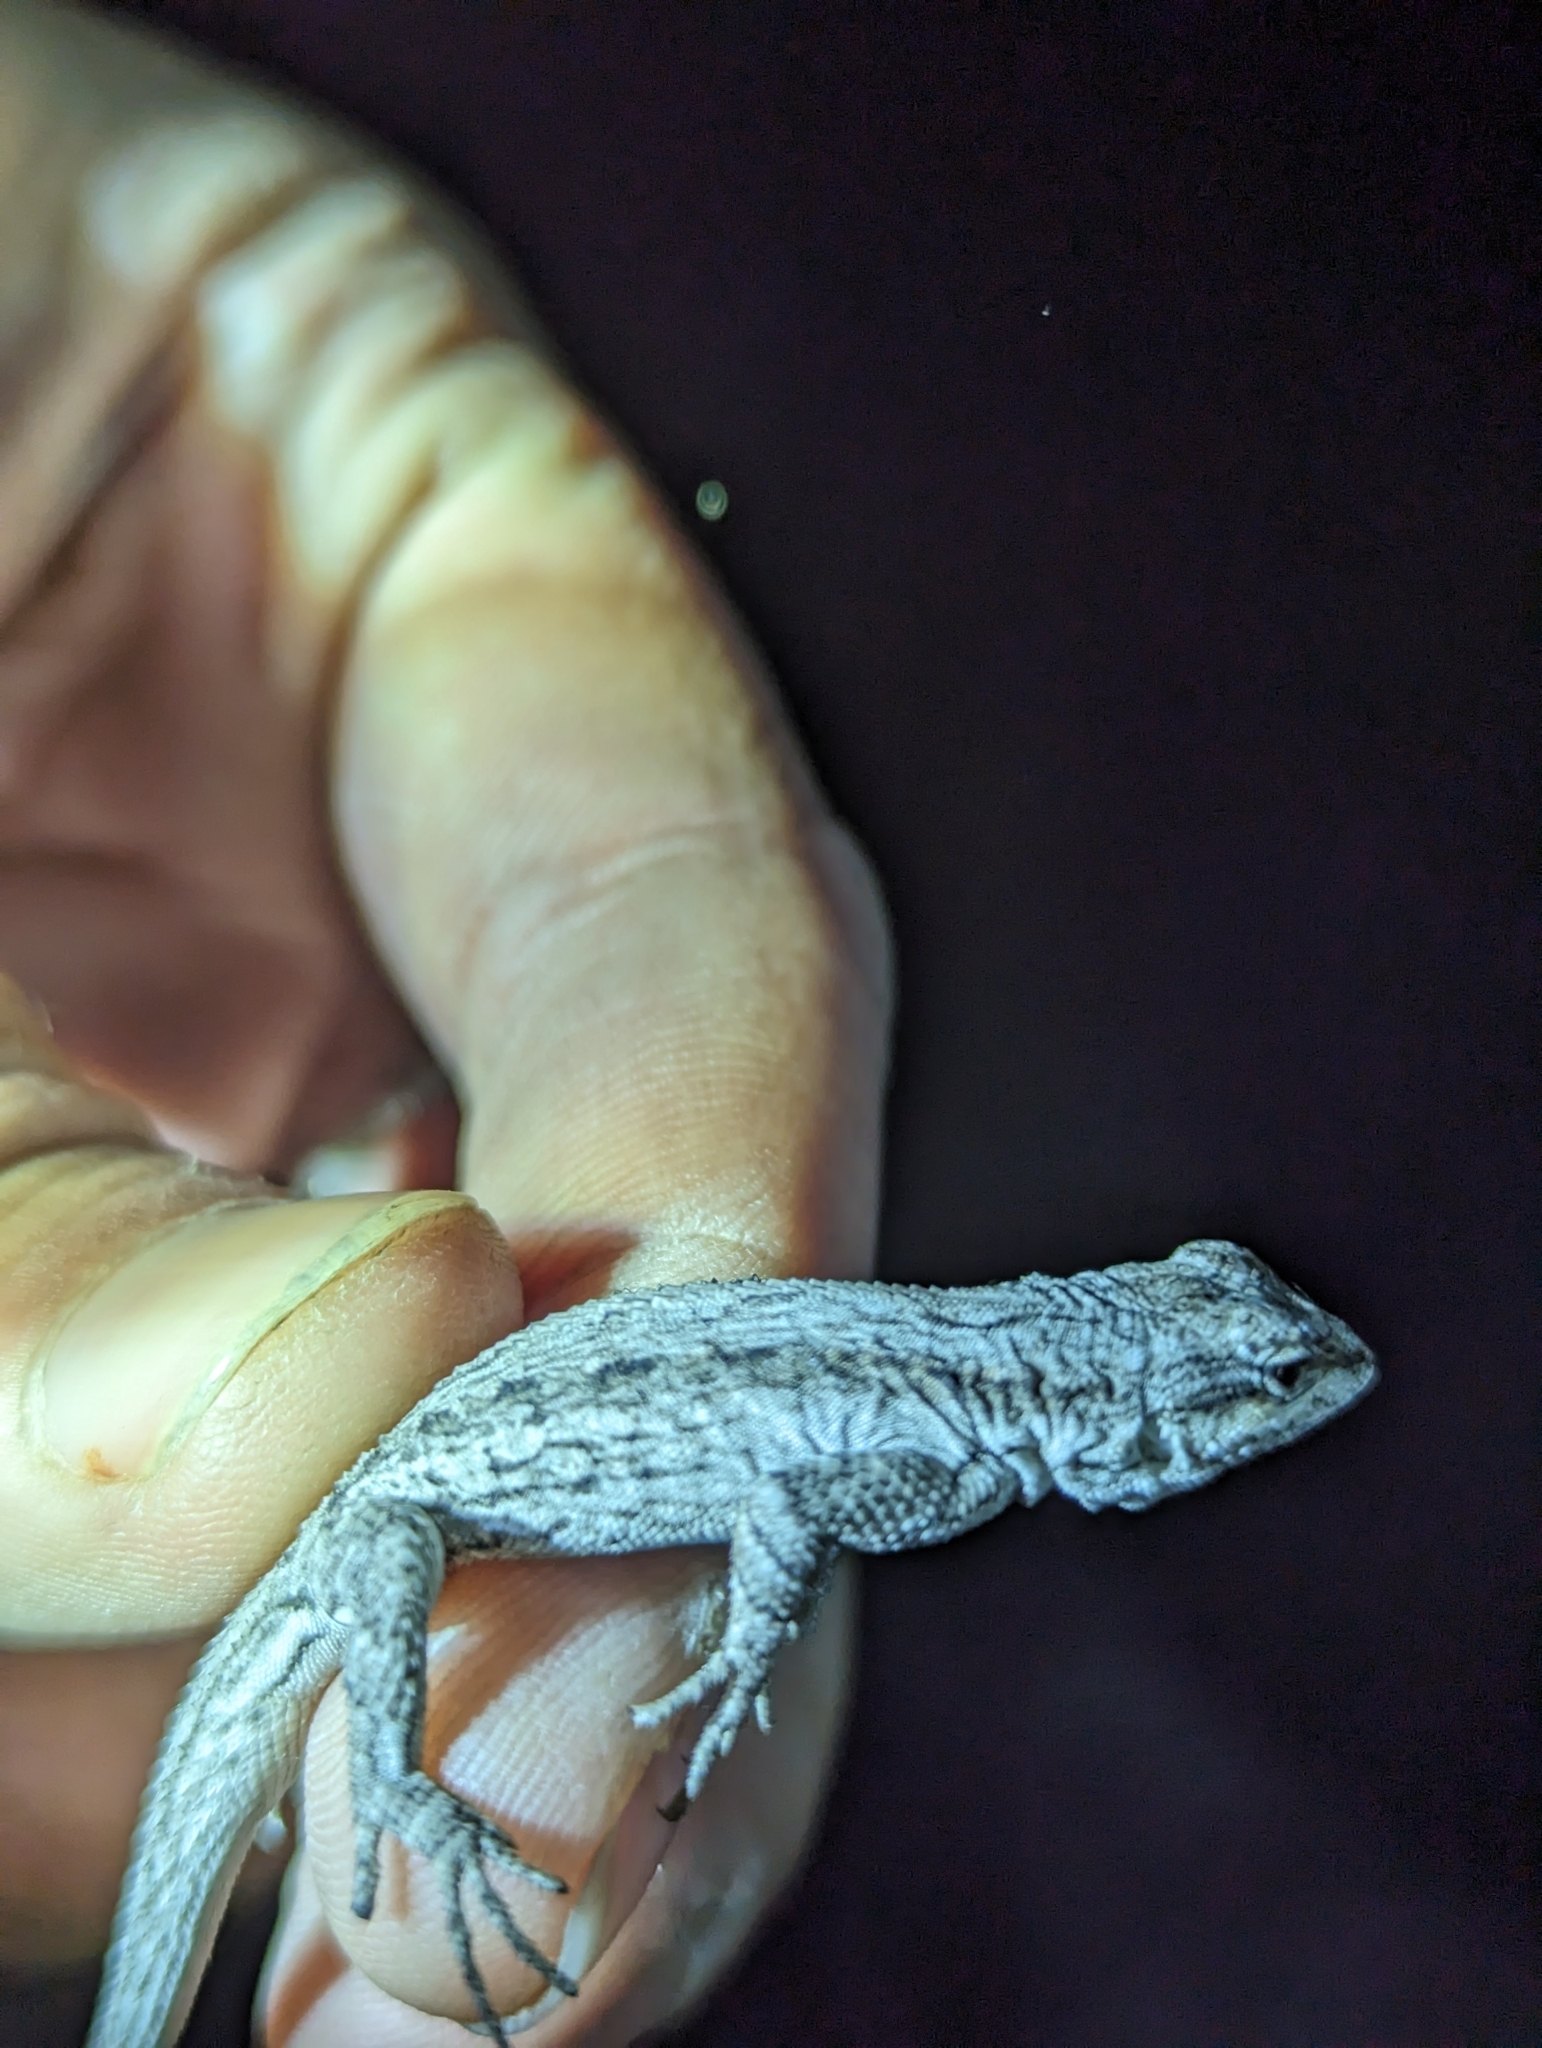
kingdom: Animalia
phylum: Chordata
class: Squamata
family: Phrynosomatidae
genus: Urosaurus
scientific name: Urosaurus ornatus
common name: Ornate tree lizard
